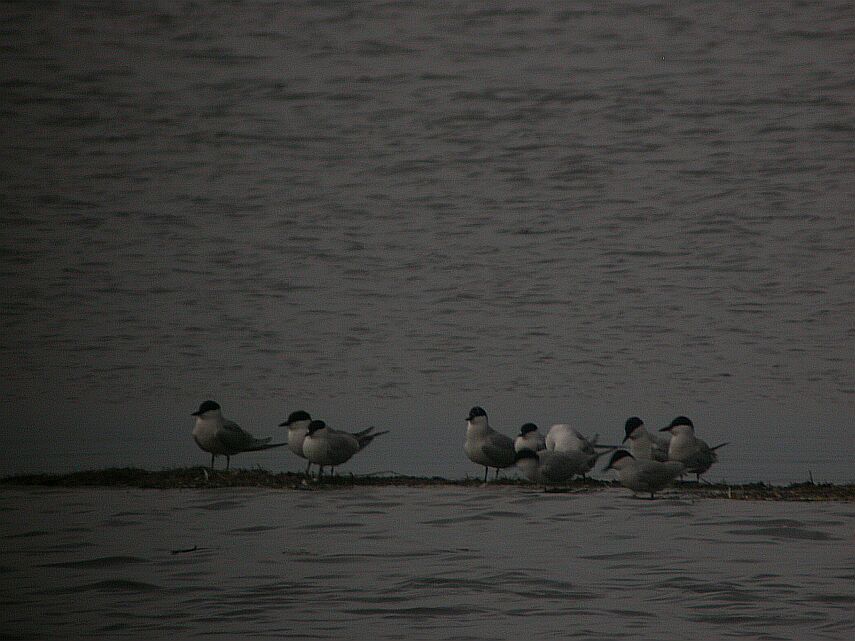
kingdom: Animalia
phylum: Chordata
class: Aves
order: Charadriiformes
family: Laridae
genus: Gelochelidon
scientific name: Gelochelidon nilotica
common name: Gull-billed tern
